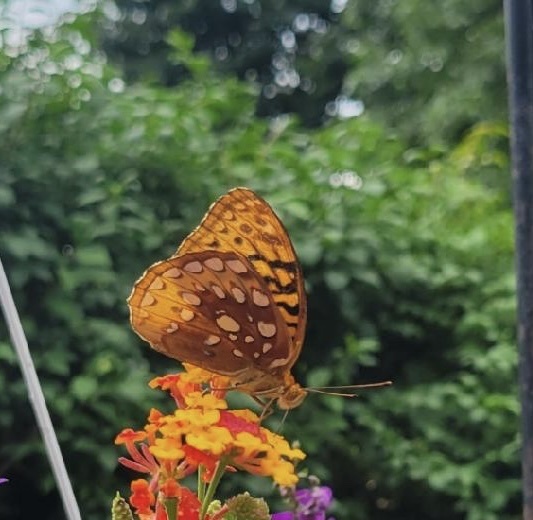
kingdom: Animalia
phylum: Arthropoda
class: Insecta
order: Lepidoptera
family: Nymphalidae
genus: Speyeria
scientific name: Speyeria cybele
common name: Great spangled fritillary
